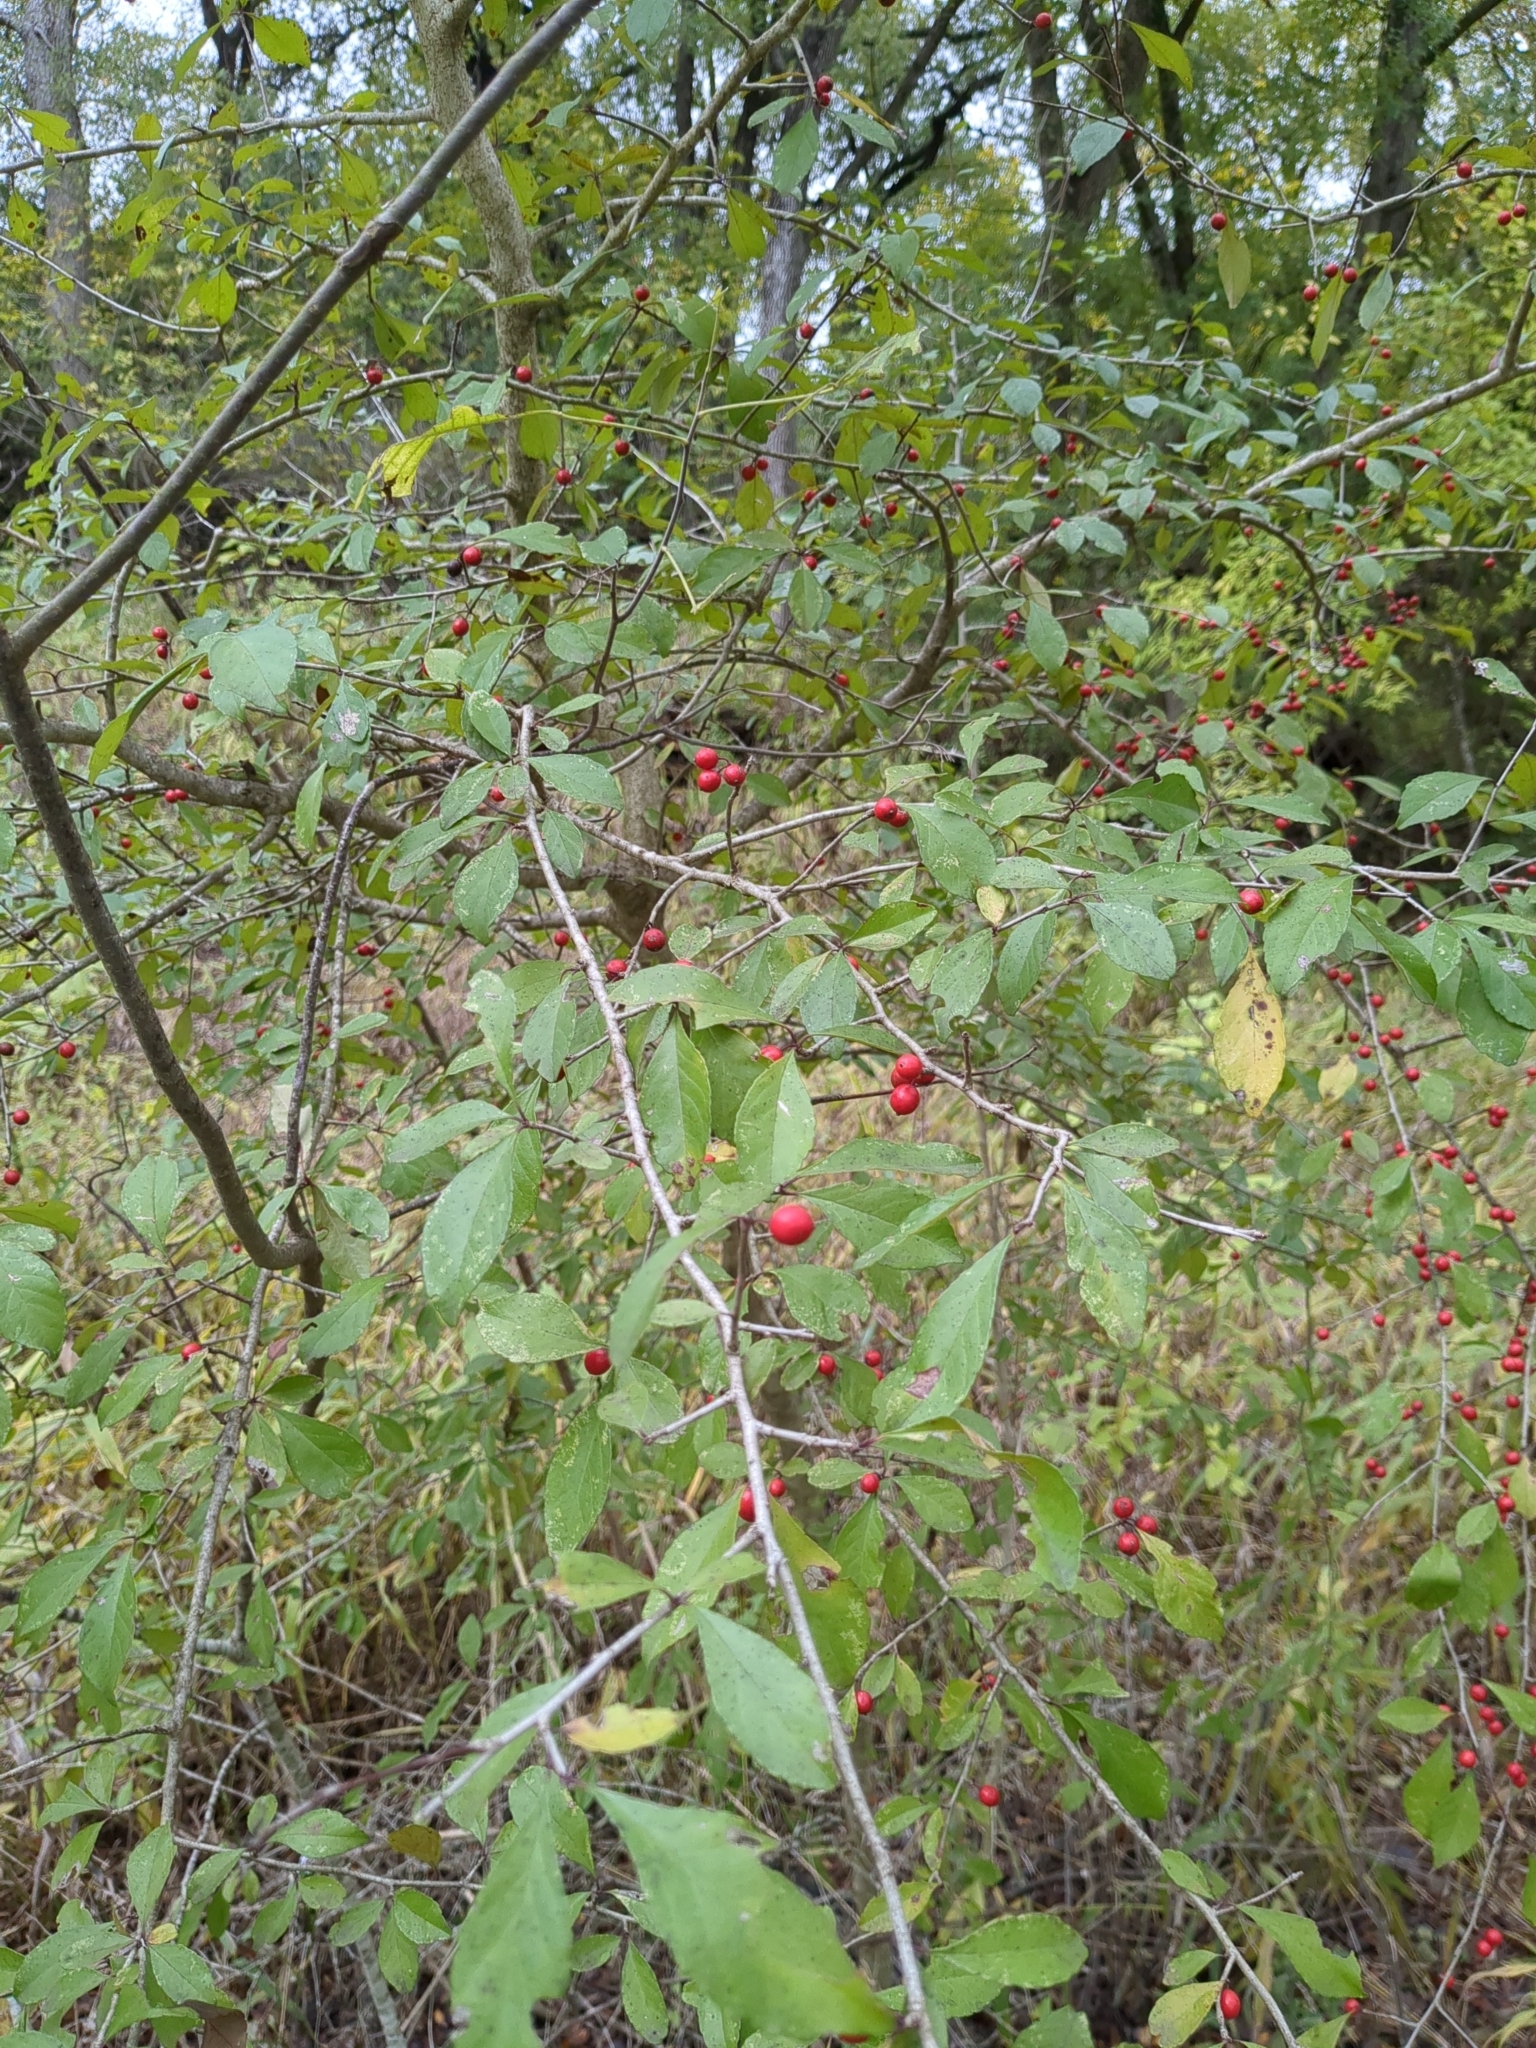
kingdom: Plantae
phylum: Tracheophyta
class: Magnoliopsida
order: Aquifoliales
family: Aquifoliaceae
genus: Ilex
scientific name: Ilex decidua
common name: Possum-haw
